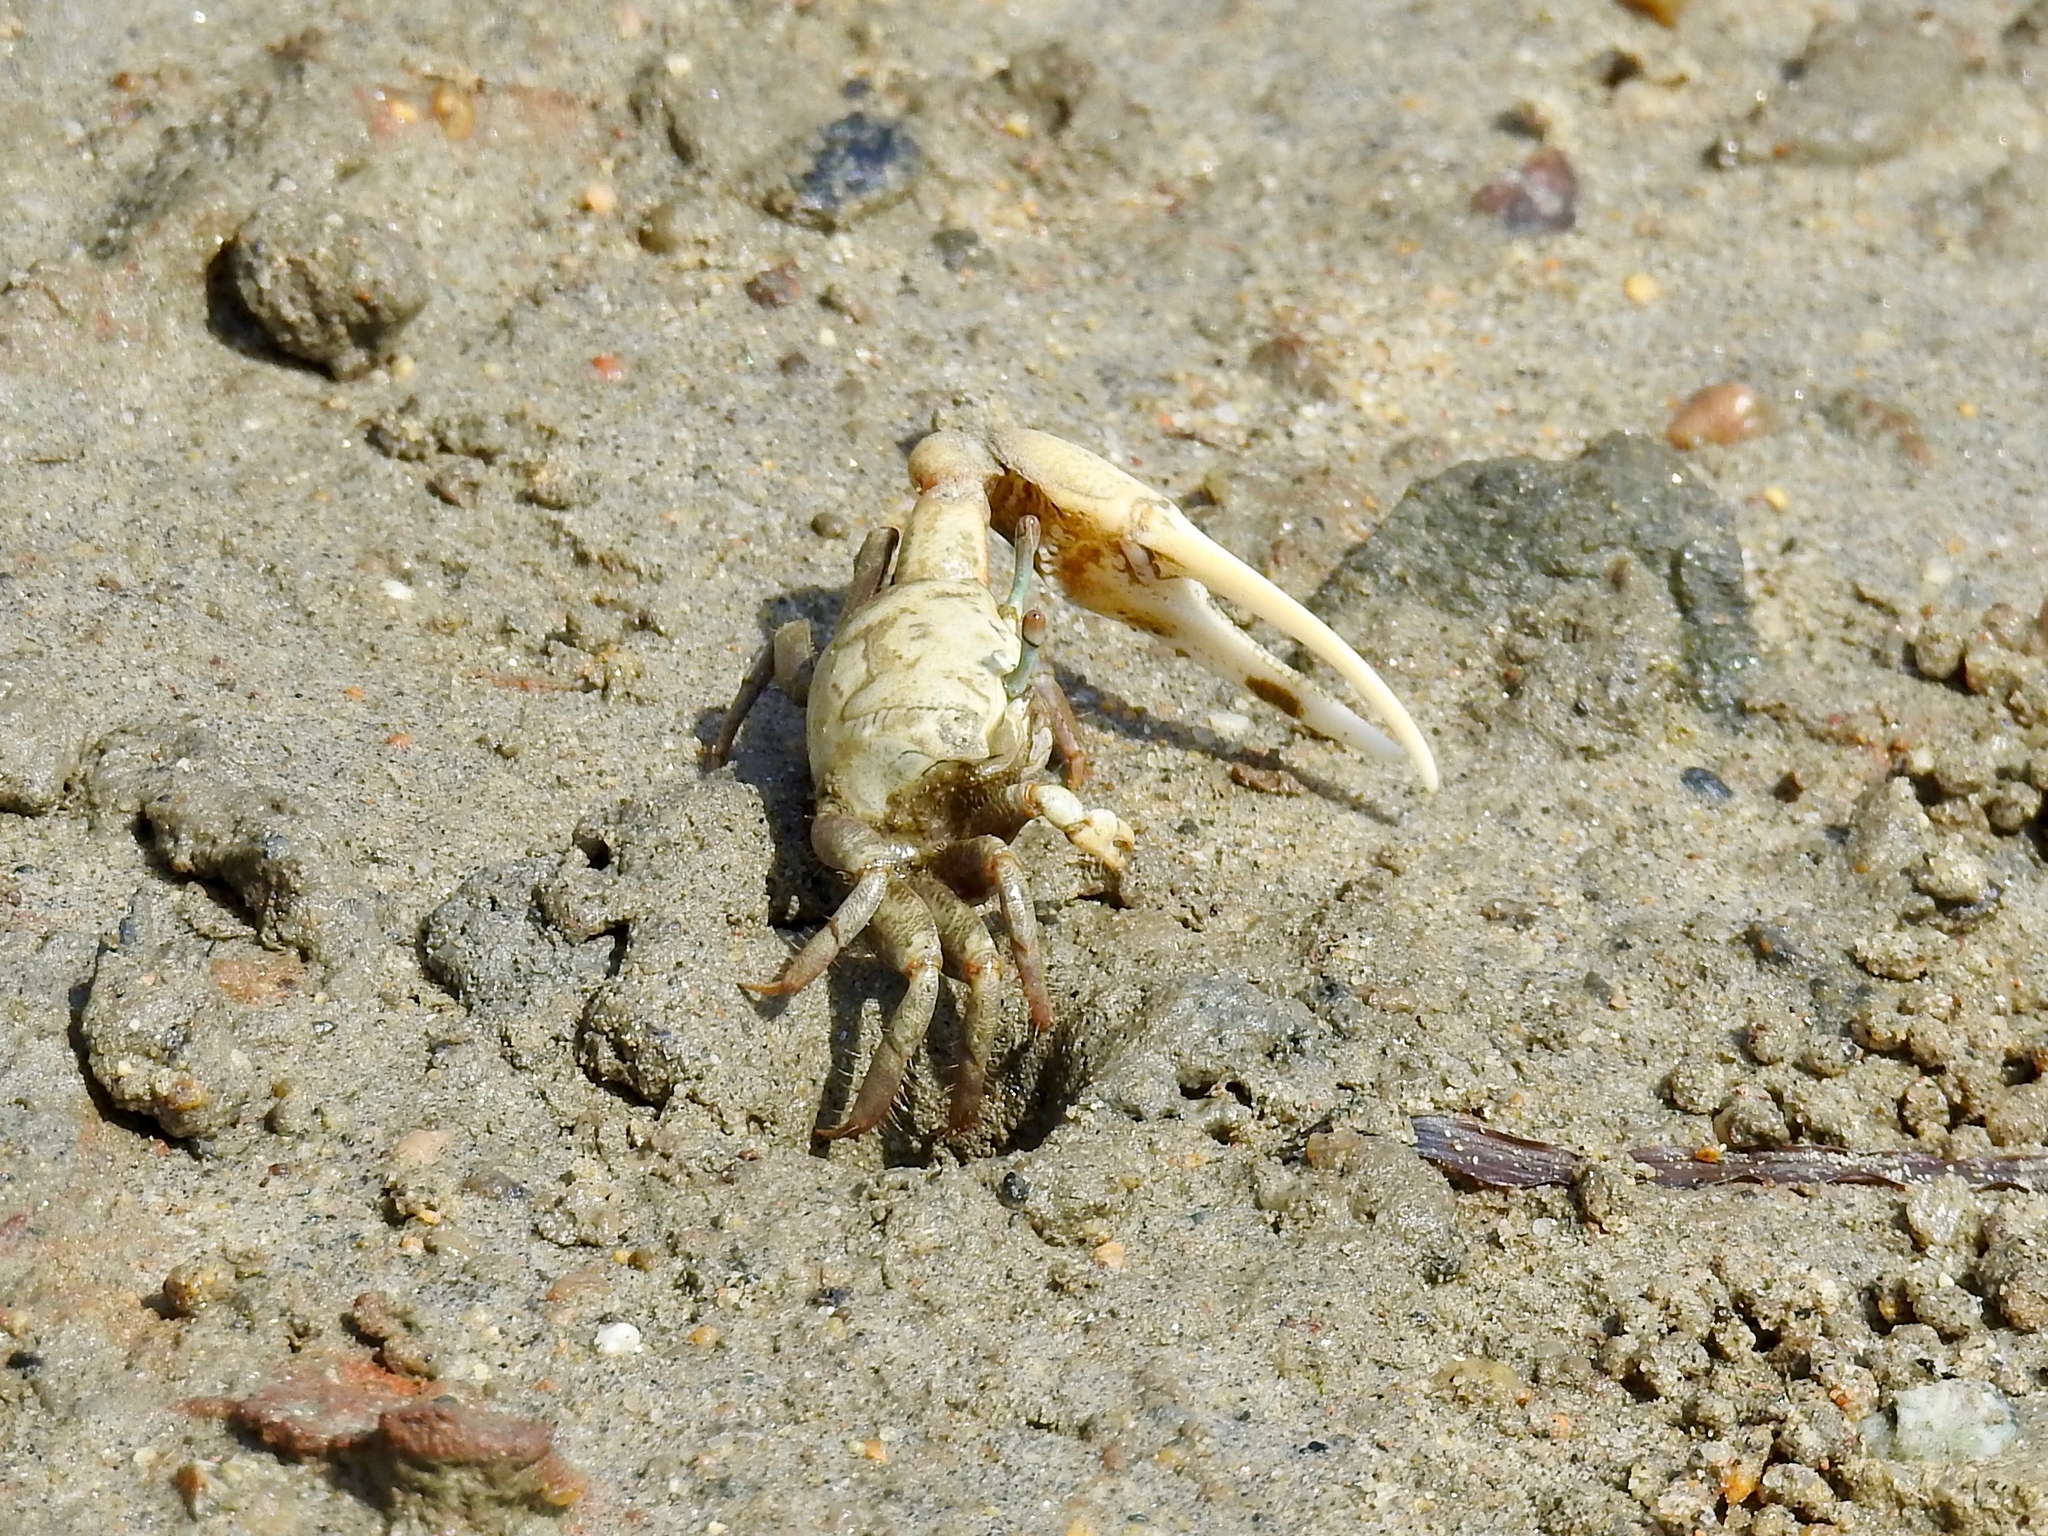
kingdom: Animalia
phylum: Arthropoda
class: Malacostraca
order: Decapoda
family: Ocypodidae
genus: Leptuca
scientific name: Leptuca crenulata
